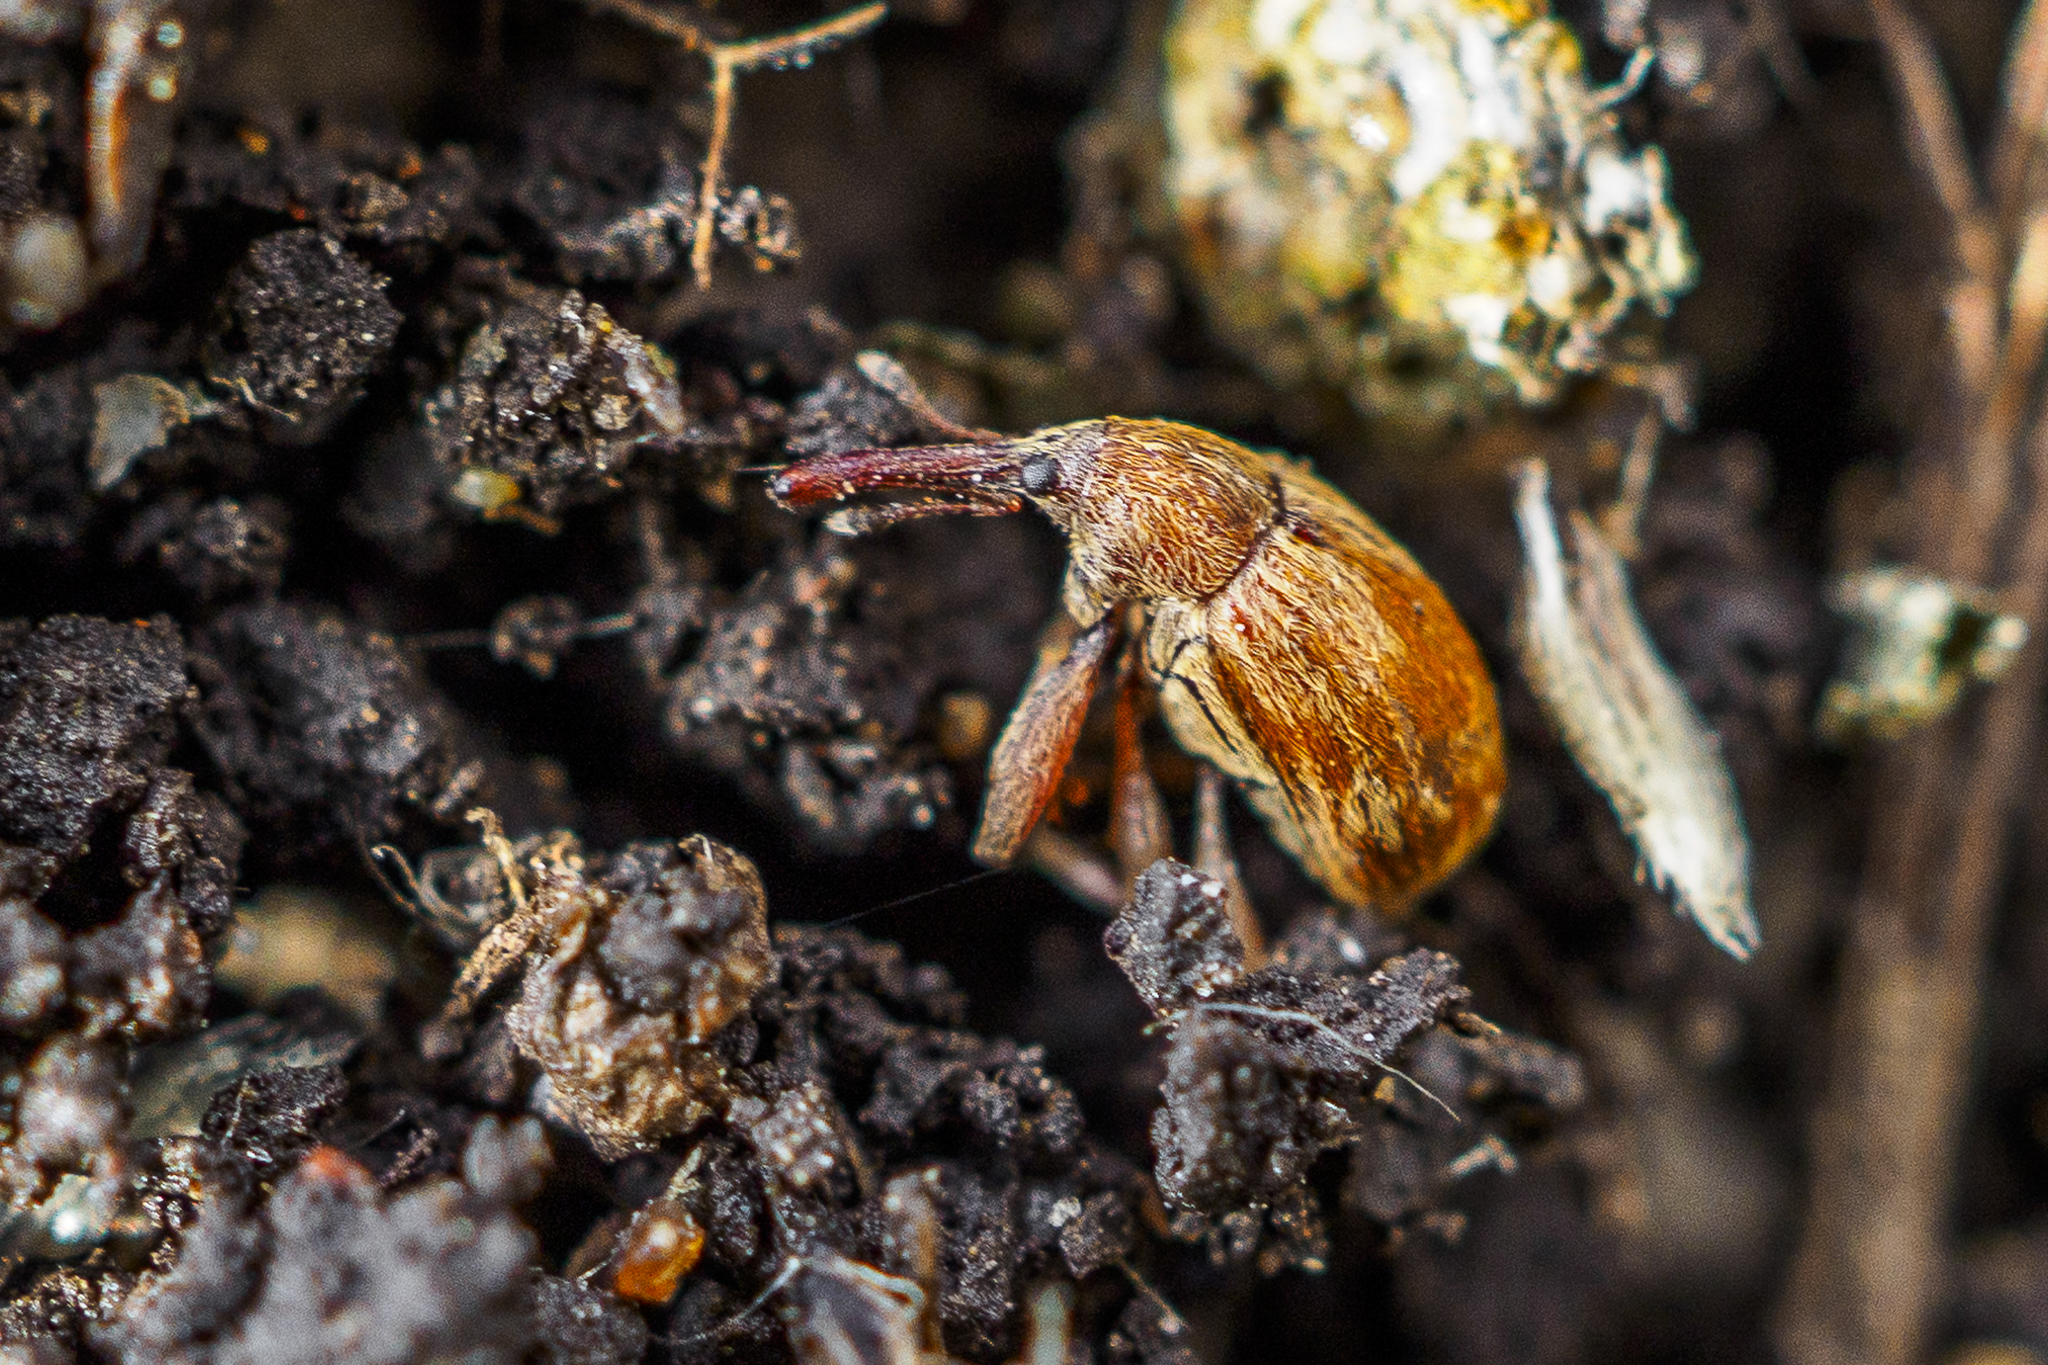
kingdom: Animalia
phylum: Arthropoda
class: Insecta
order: Coleoptera
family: Curculionidae
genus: Anthonomus
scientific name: Anthonomus rectirostris
